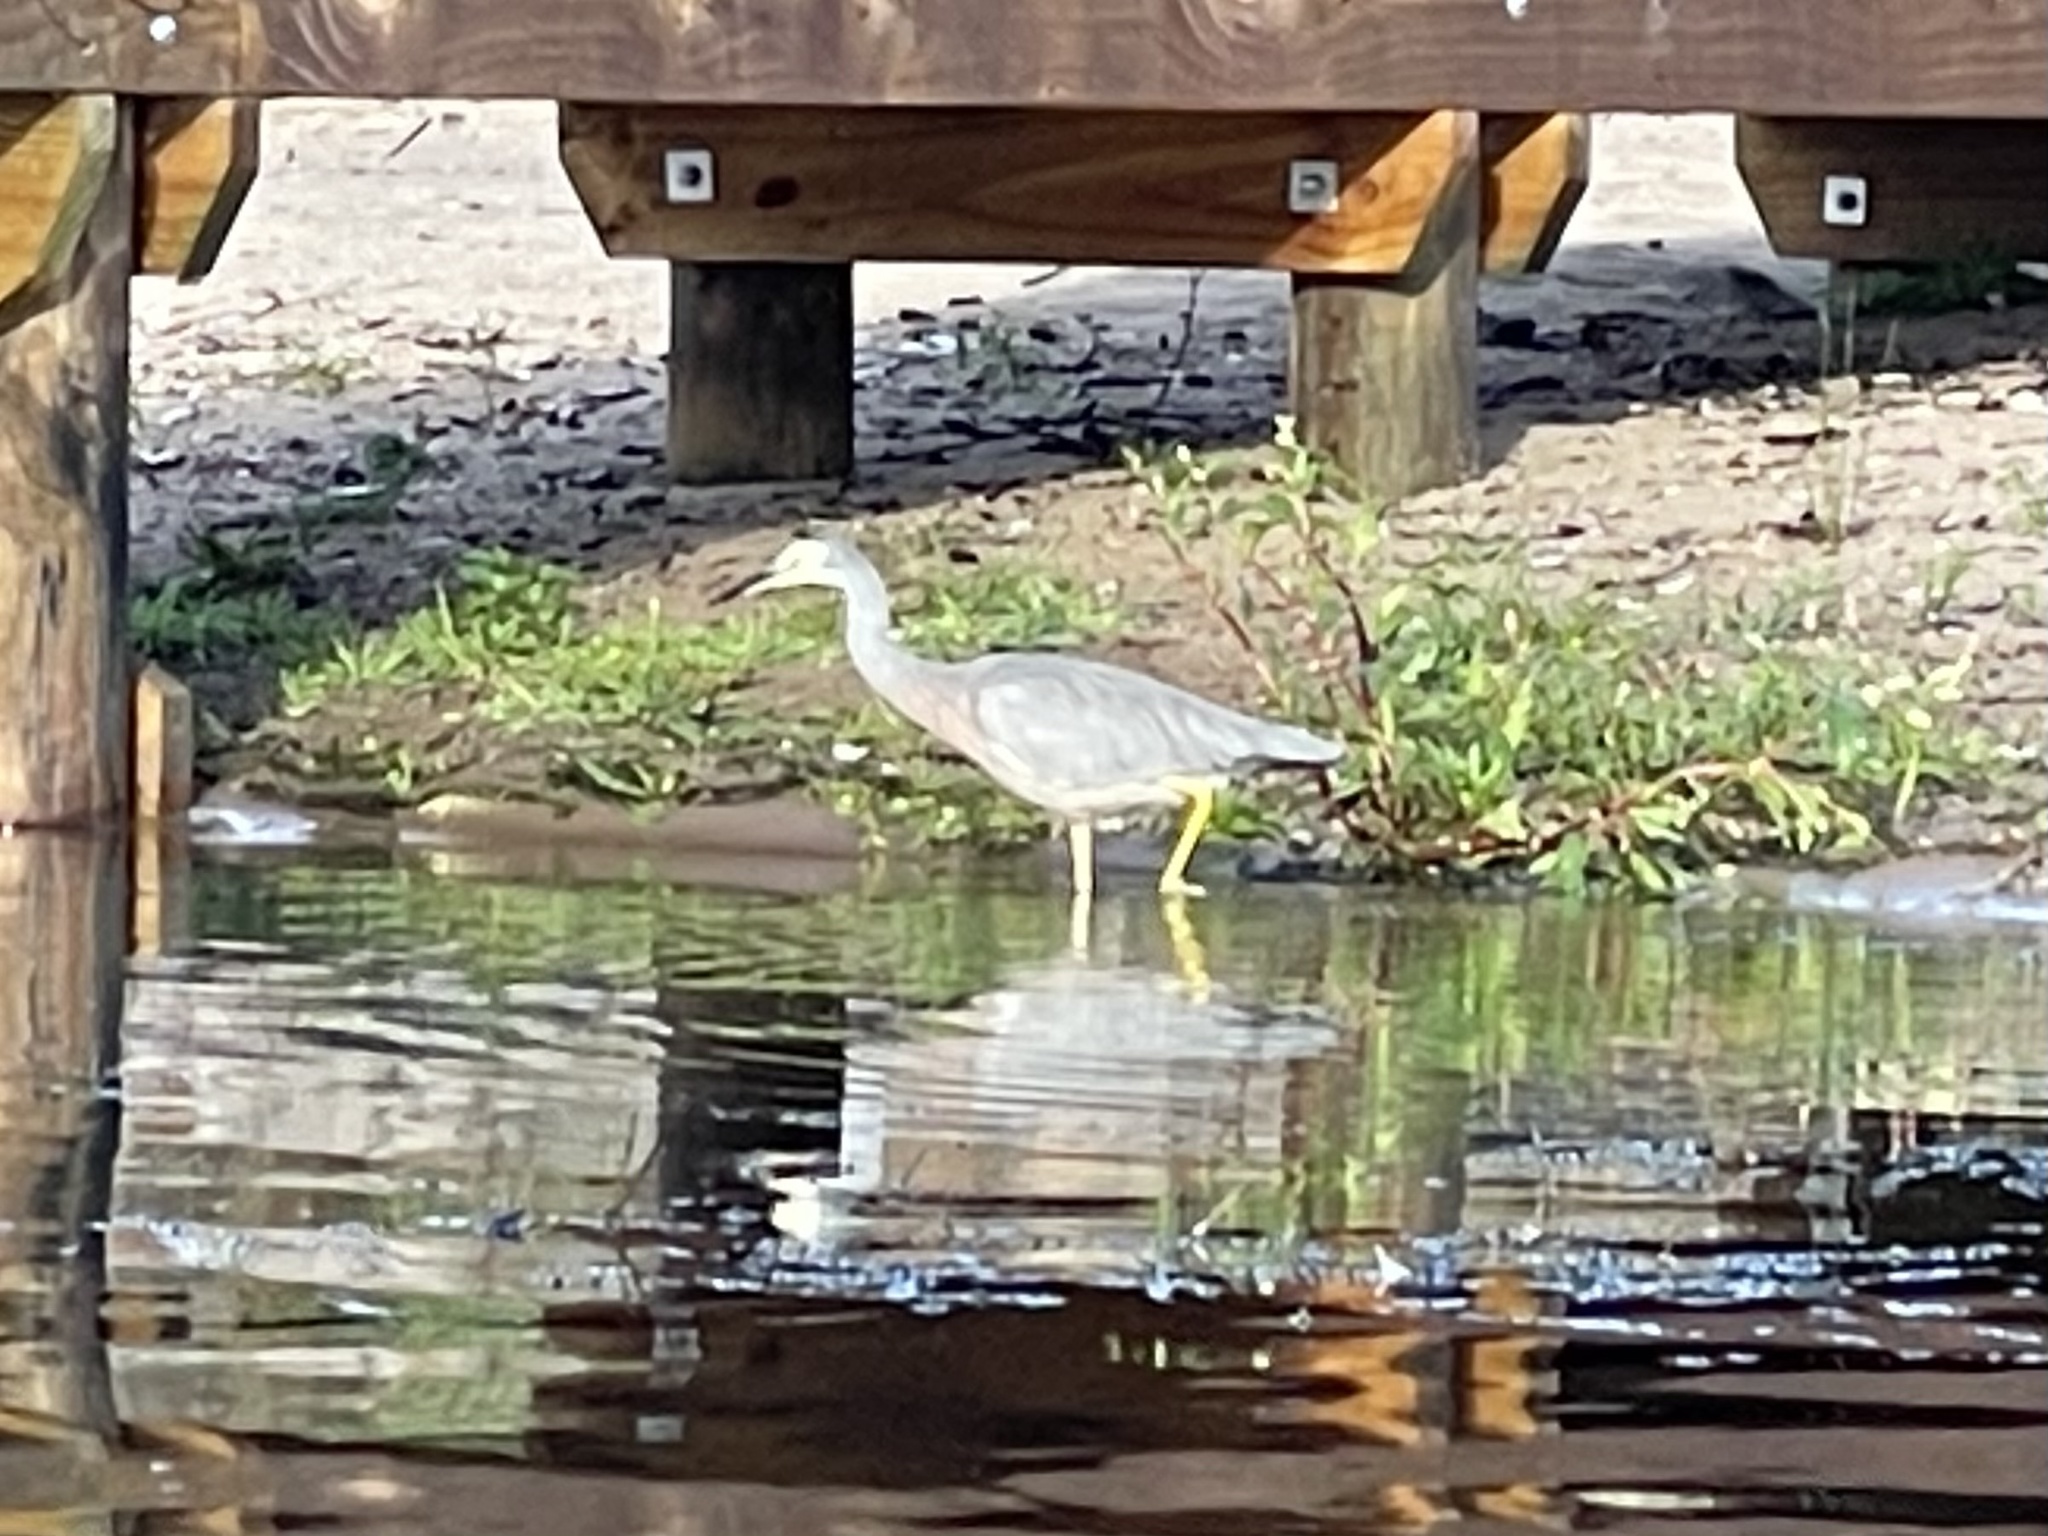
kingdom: Animalia
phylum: Chordata
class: Aves
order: Pelecaniformes
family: Ardeidae
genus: Egretta
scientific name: Egretta novaehollandiae
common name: White-faced heron
